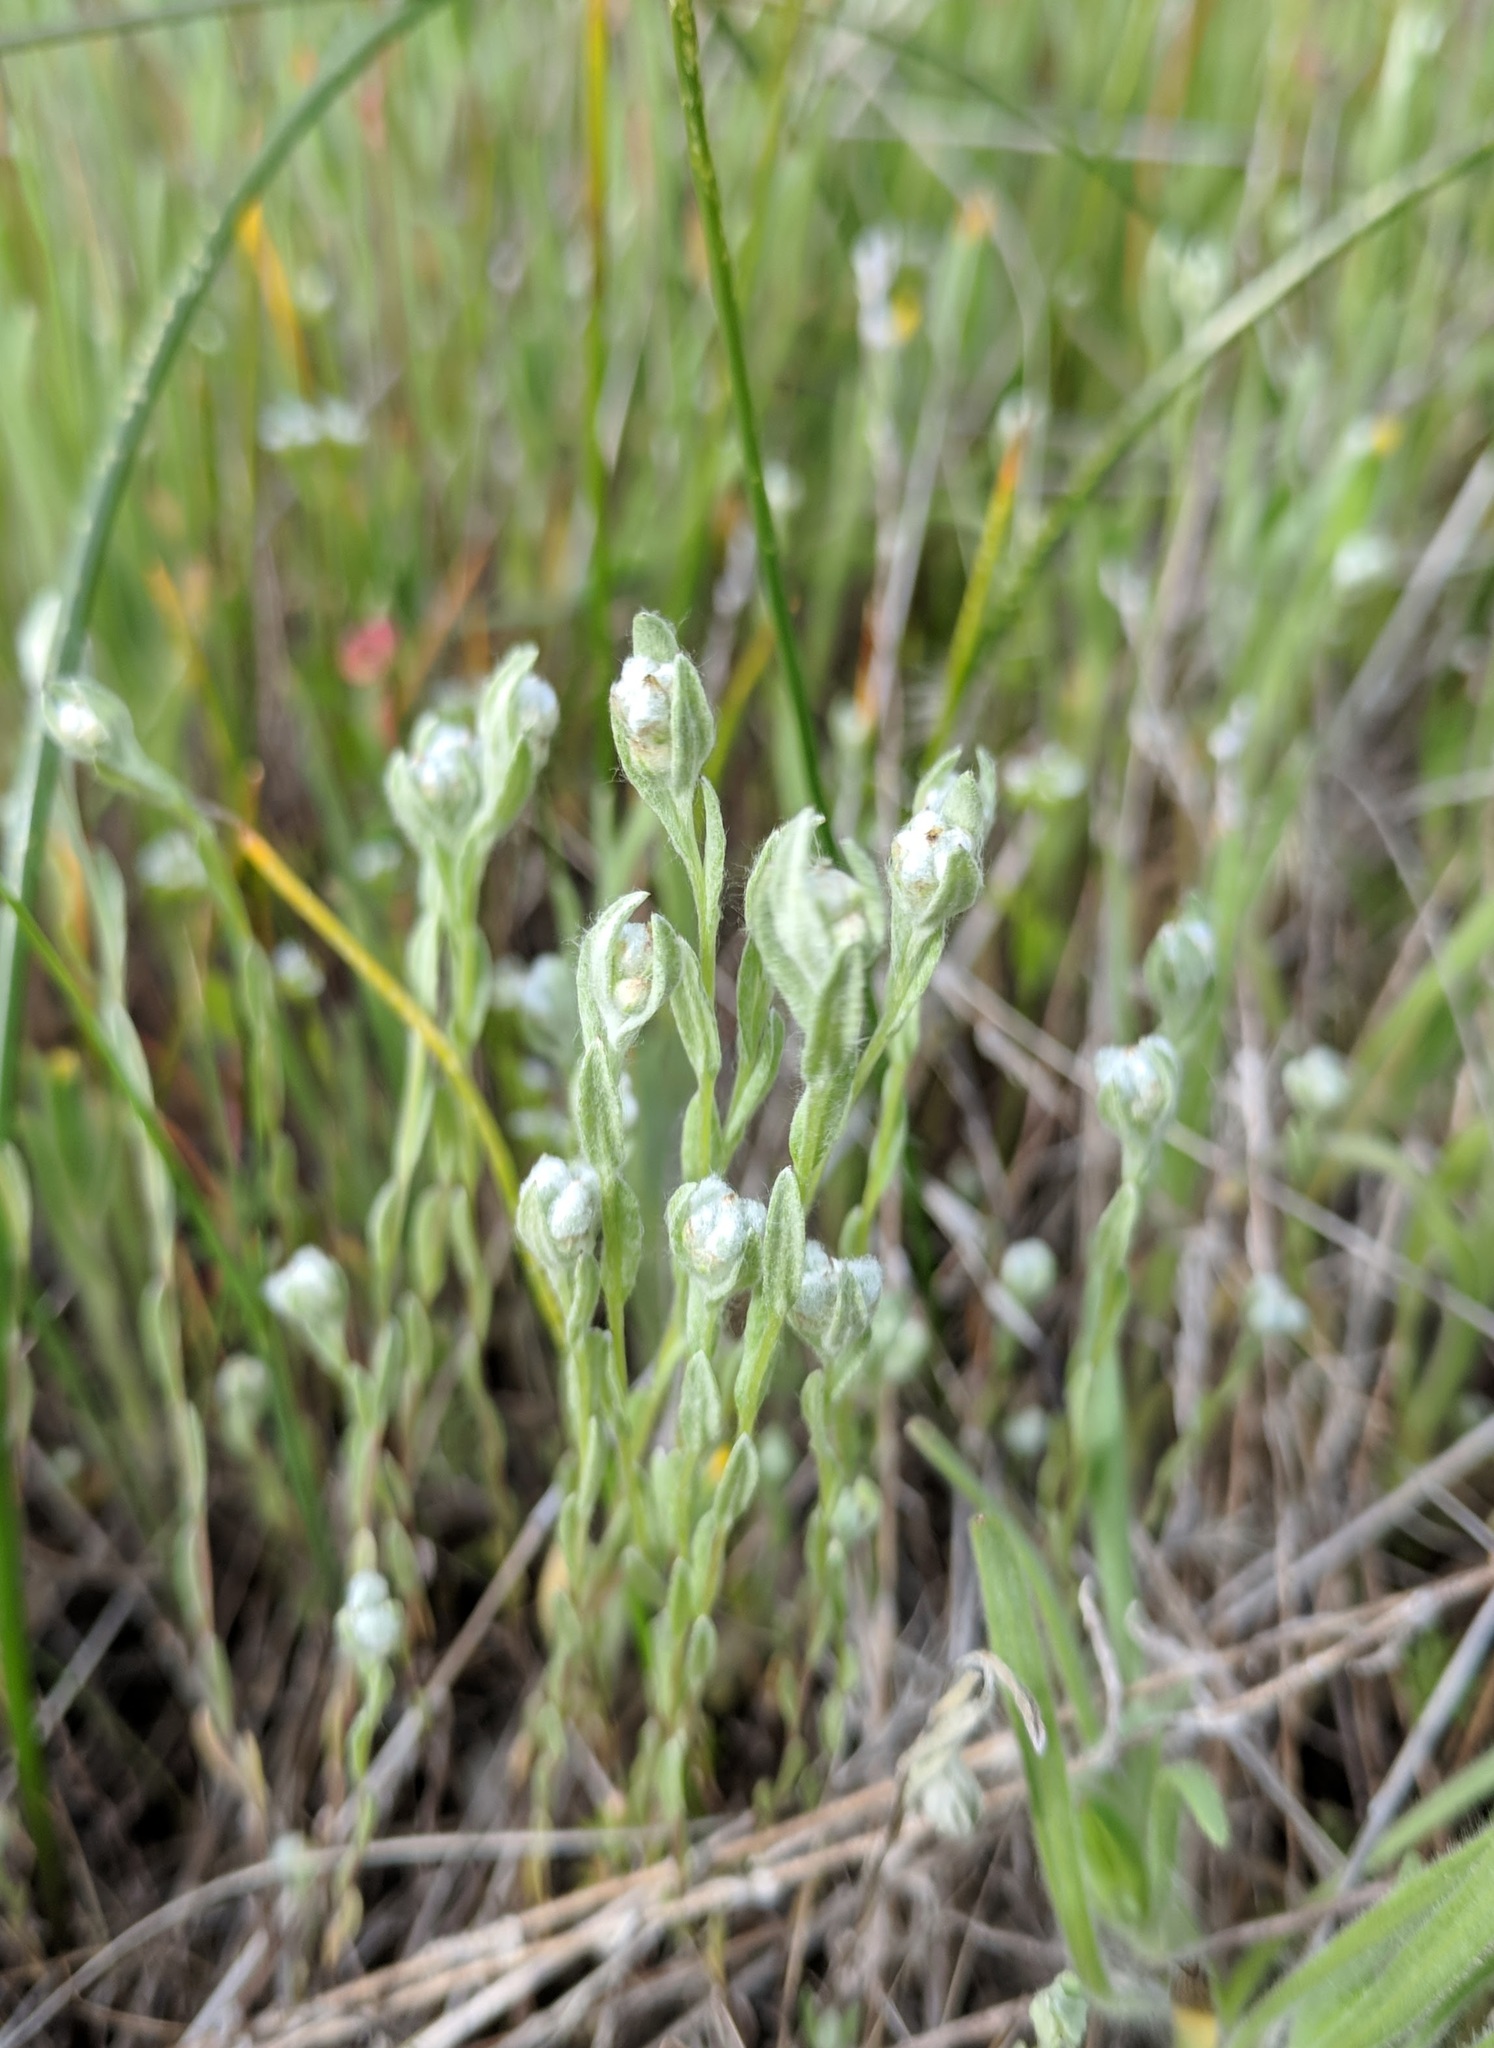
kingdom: Plantae
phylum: Tracheophyta
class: Magnoliopsida
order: Asterales
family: Asteraceae
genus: Bombycilaena
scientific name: Bombycilaena californica
